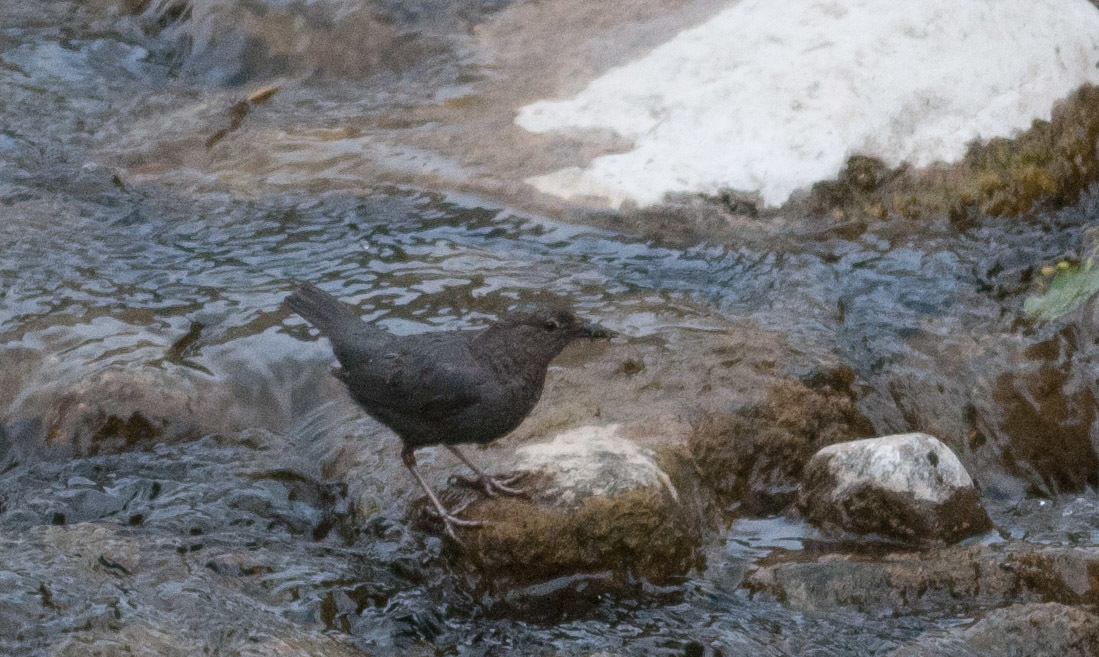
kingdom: Animalia
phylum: Chordata
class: Aves
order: Passeriformes
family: Cinclidae
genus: Cinclus
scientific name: Cinclus mexicanus
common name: American dipper
